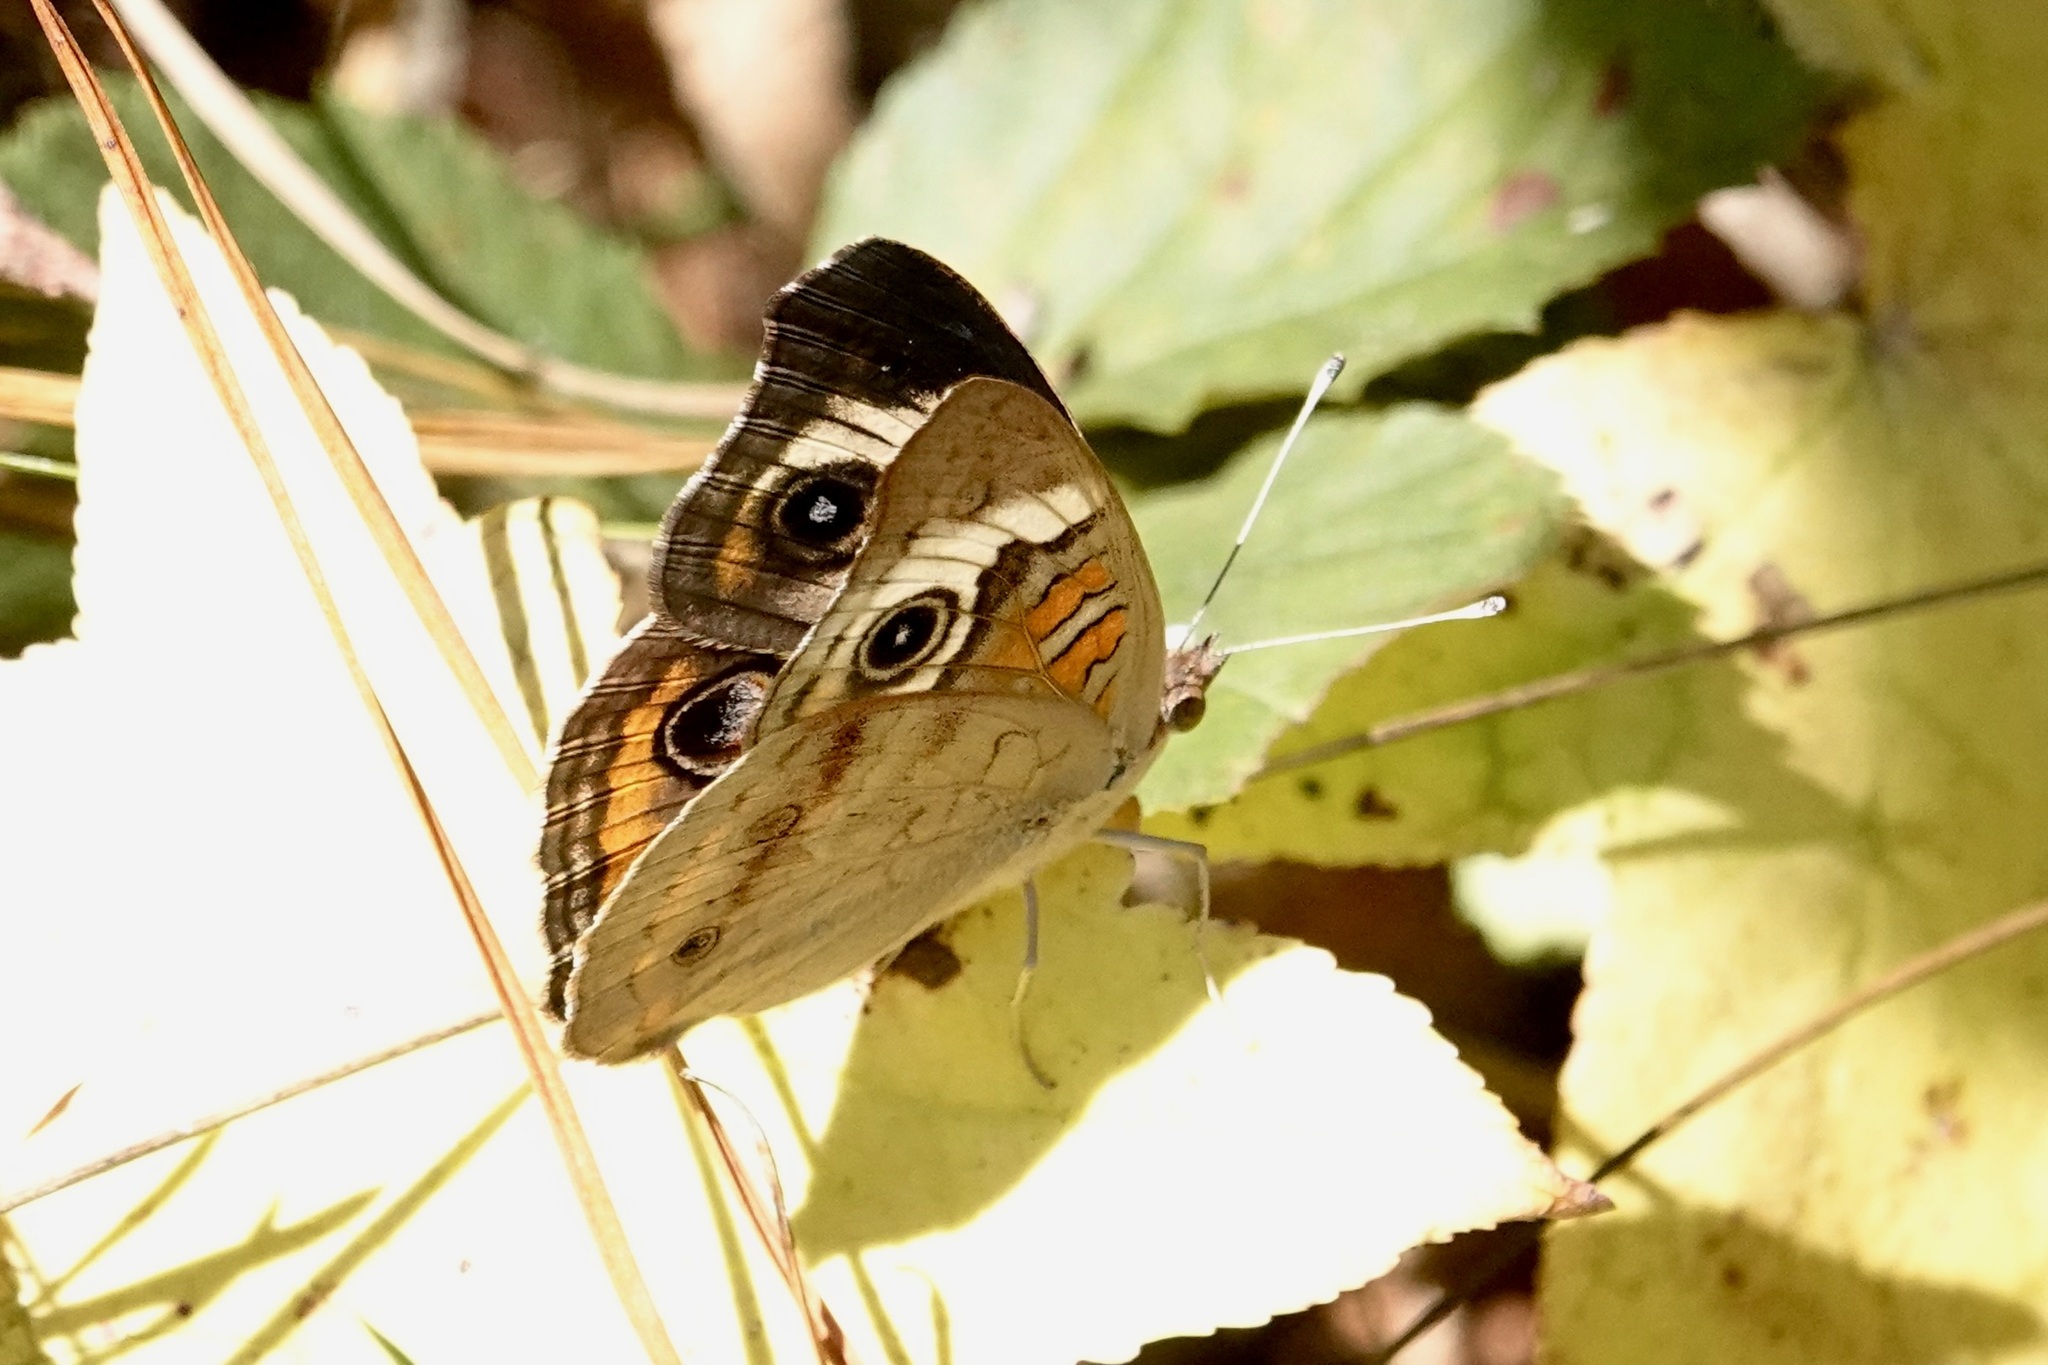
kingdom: Animalia
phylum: Arthropoda
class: Insecta
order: Lepidoptera
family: Nymphalidae
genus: Junonia
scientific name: Junonia coenia
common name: Common buckeye
